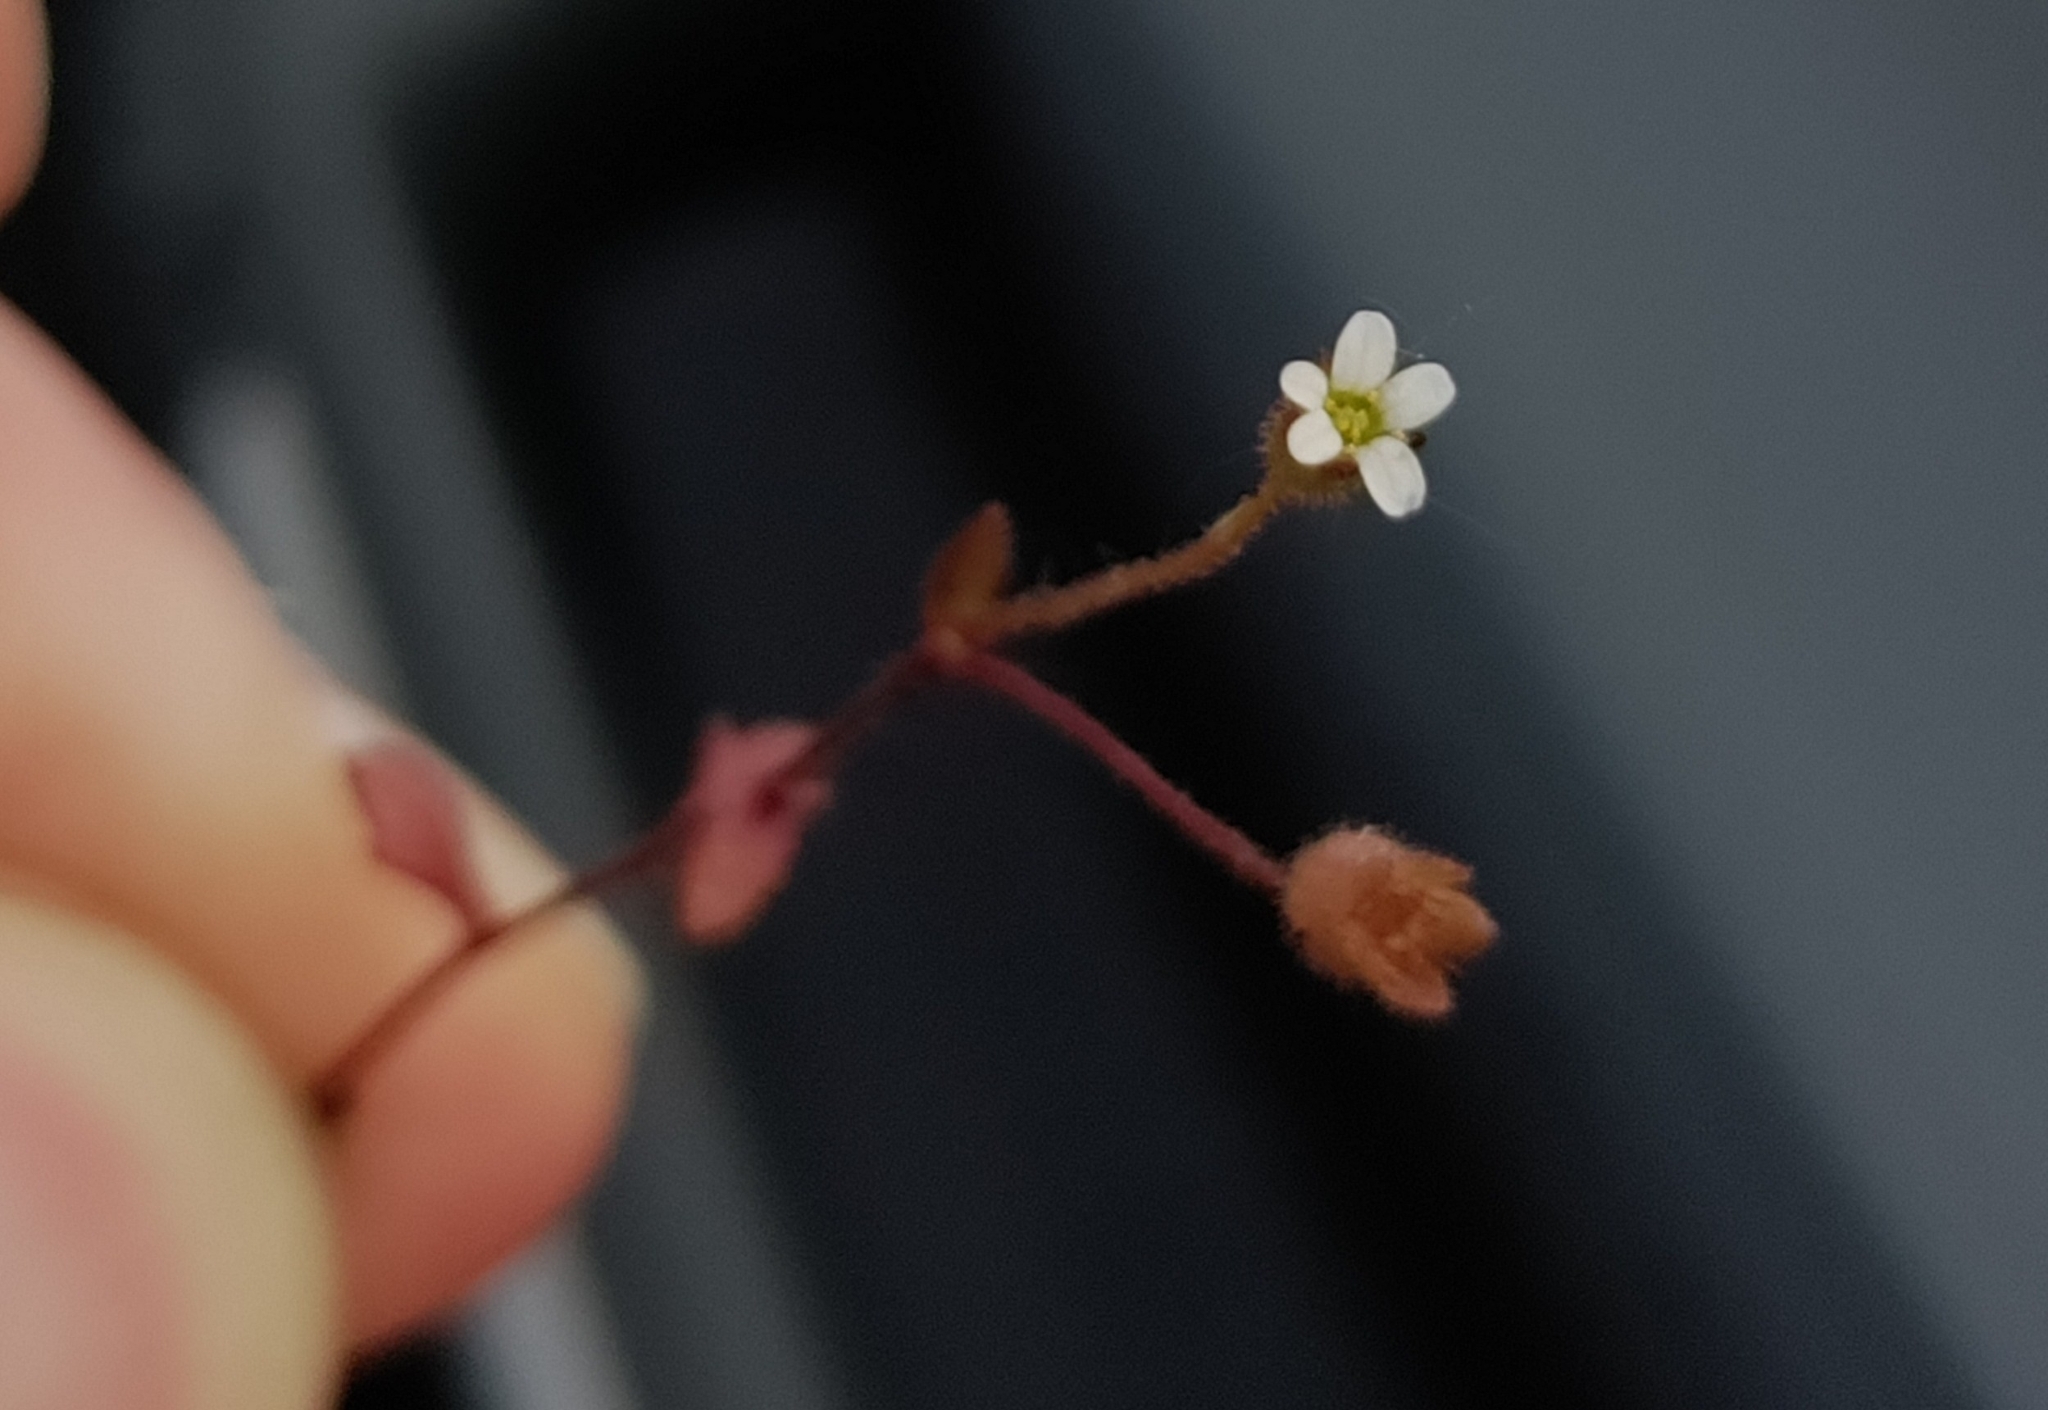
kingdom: Plantae
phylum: Tracheophyta
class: Magnoliopsida
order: Saxifragales
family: Saxifragaceae
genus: Saxifraga
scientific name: Saxifraga tridactylites
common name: Rue-leaved saxifrage
